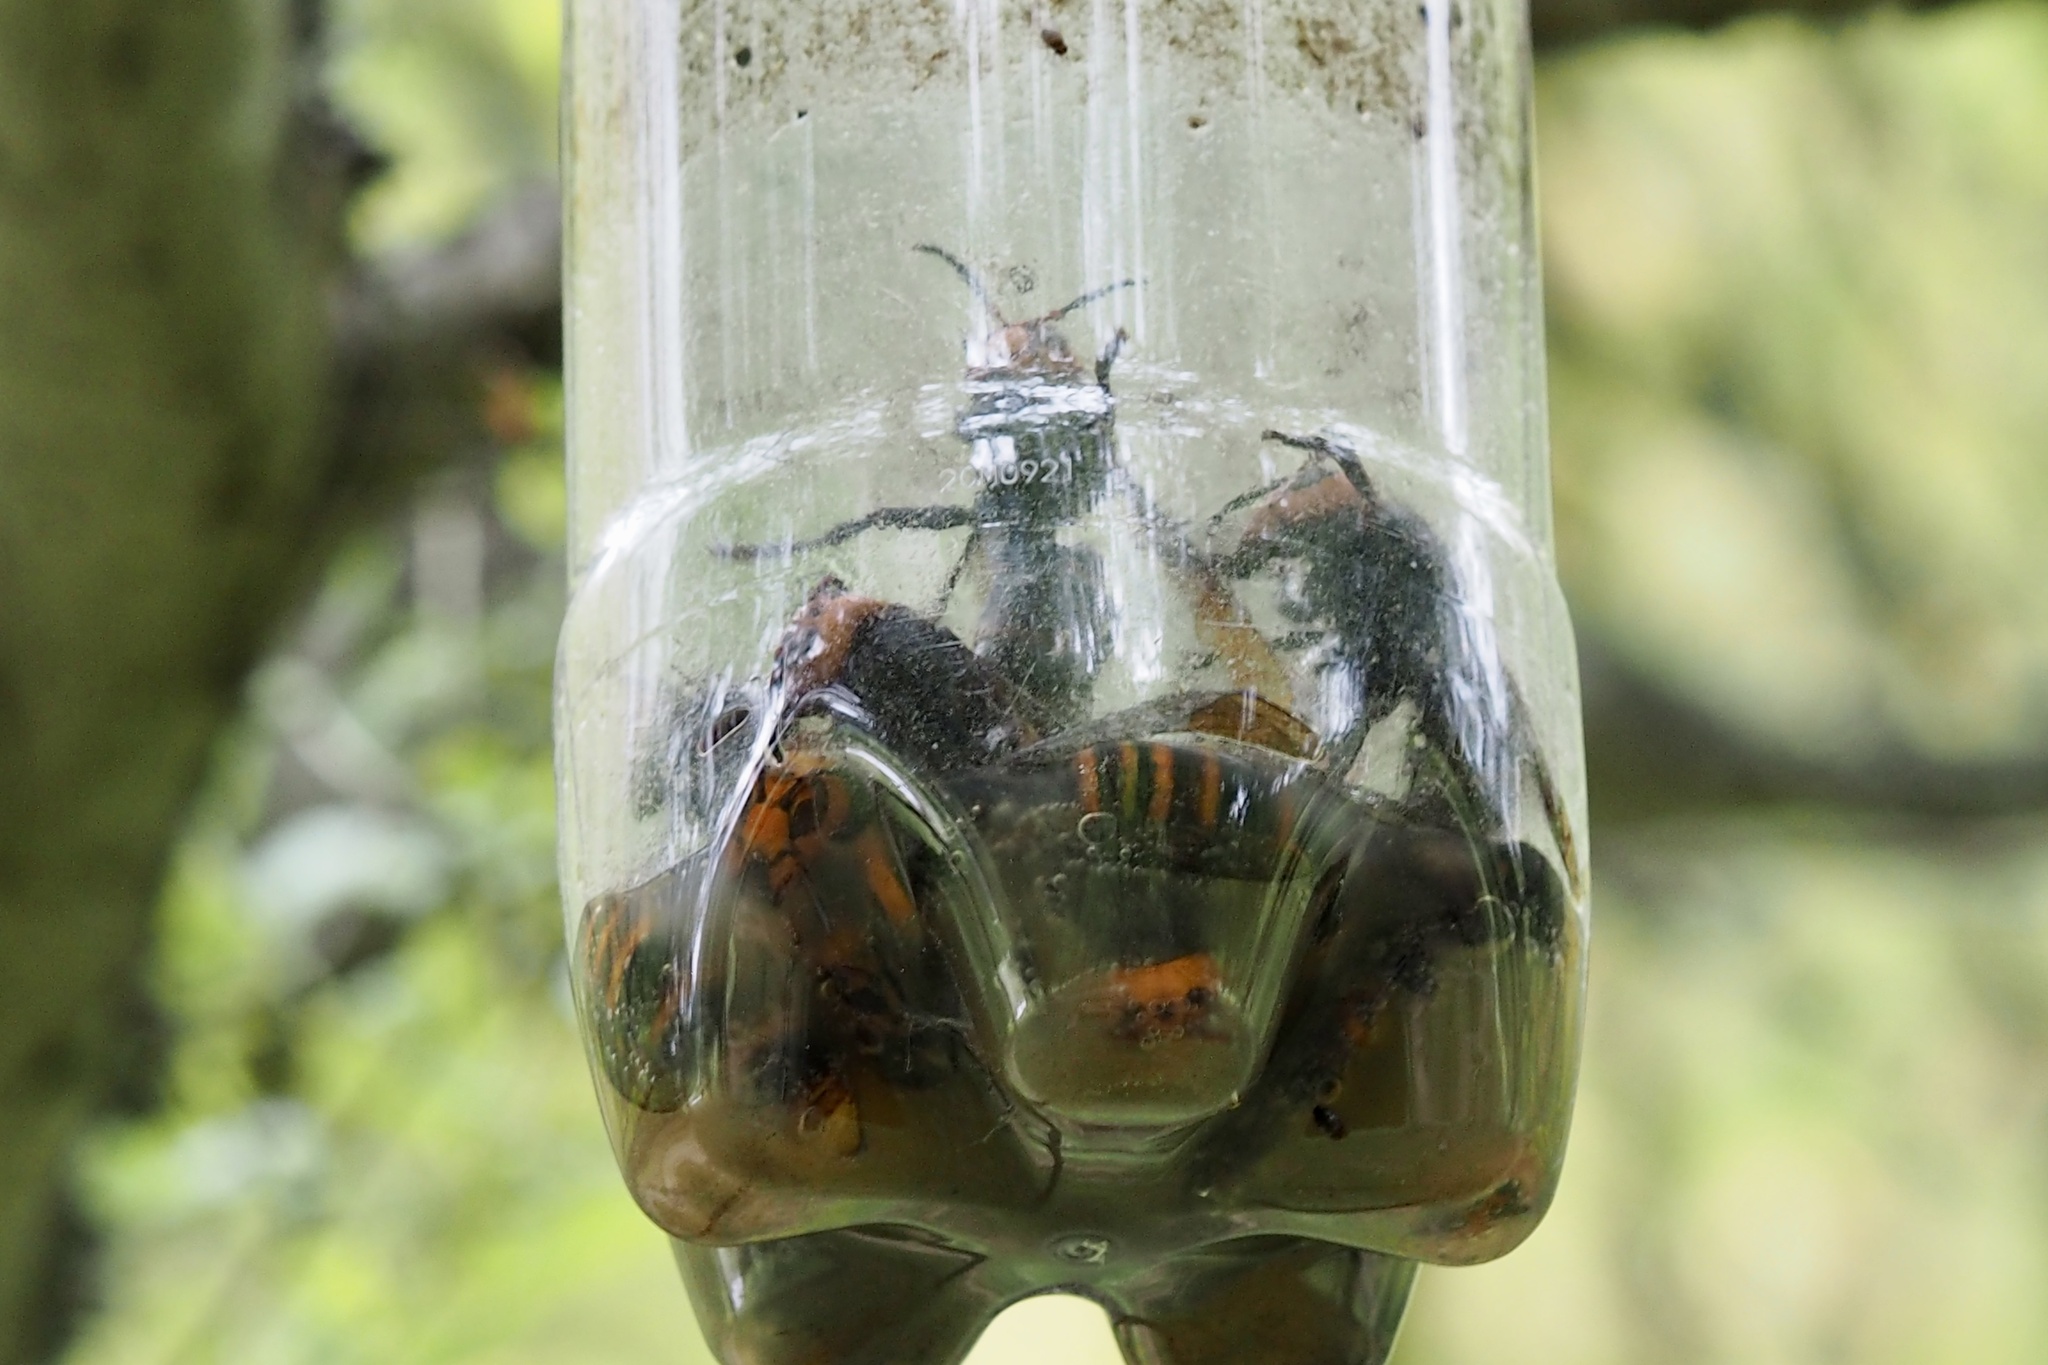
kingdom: Animalia
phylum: Arthropoda
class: Insecta
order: Hymenoptera
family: Vespidae
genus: Vespa
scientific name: Vespa mandarinia
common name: Asian giant hornet
